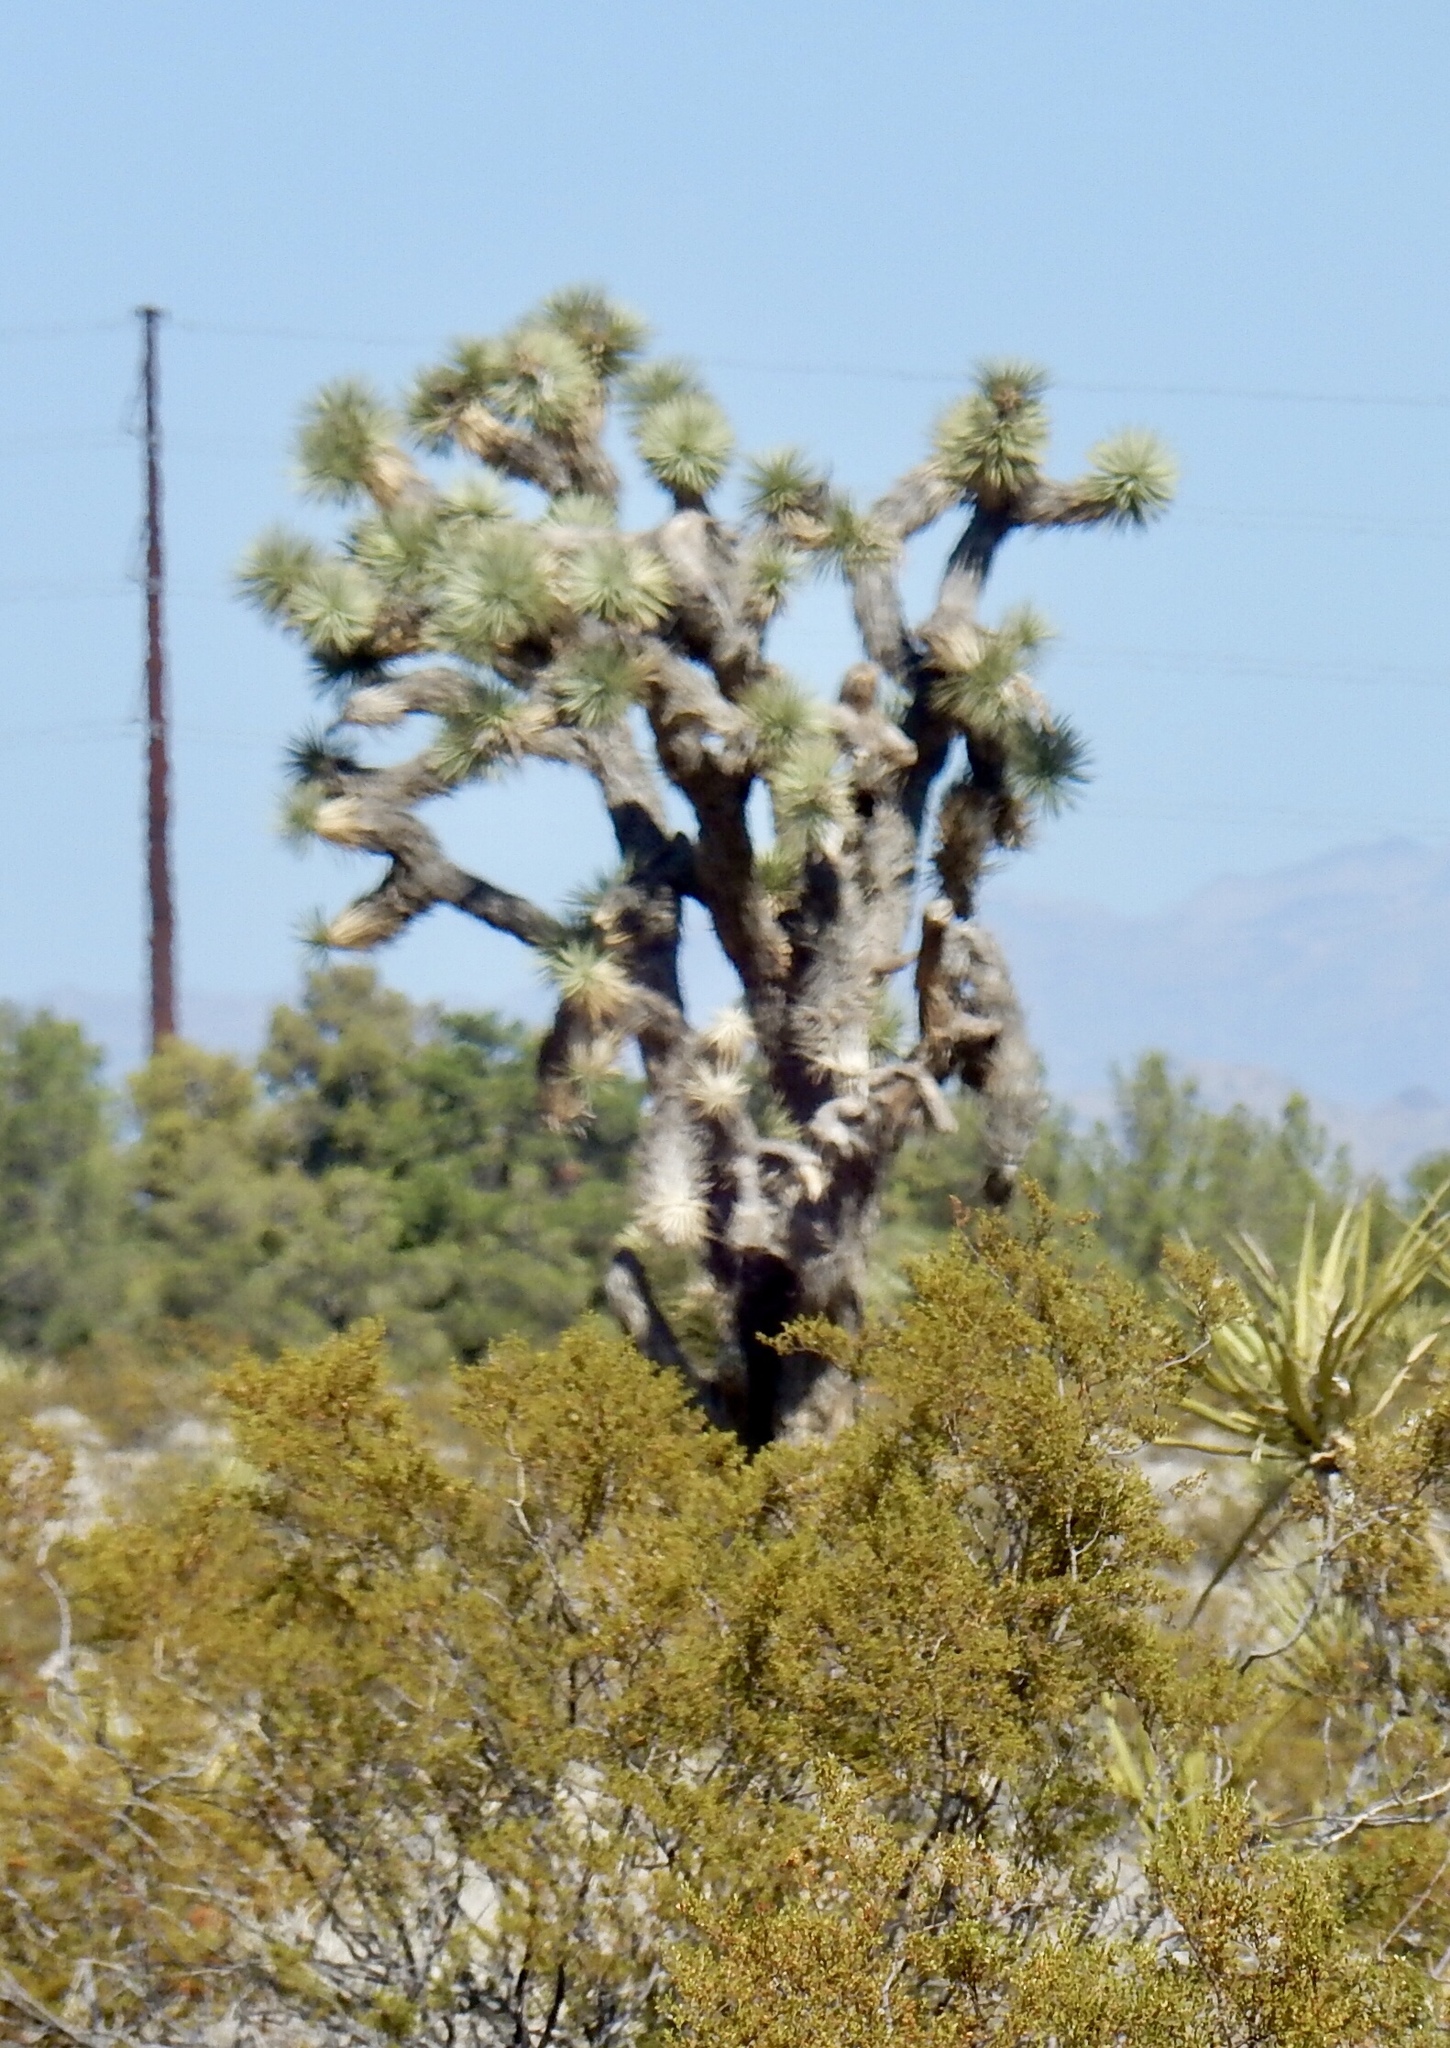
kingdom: Plantae
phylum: Tracheophyta
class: Liliopsida
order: Asparagales
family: Asparagaceae
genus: Yucca
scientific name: Yucca brevifolia
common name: Joshua tree
